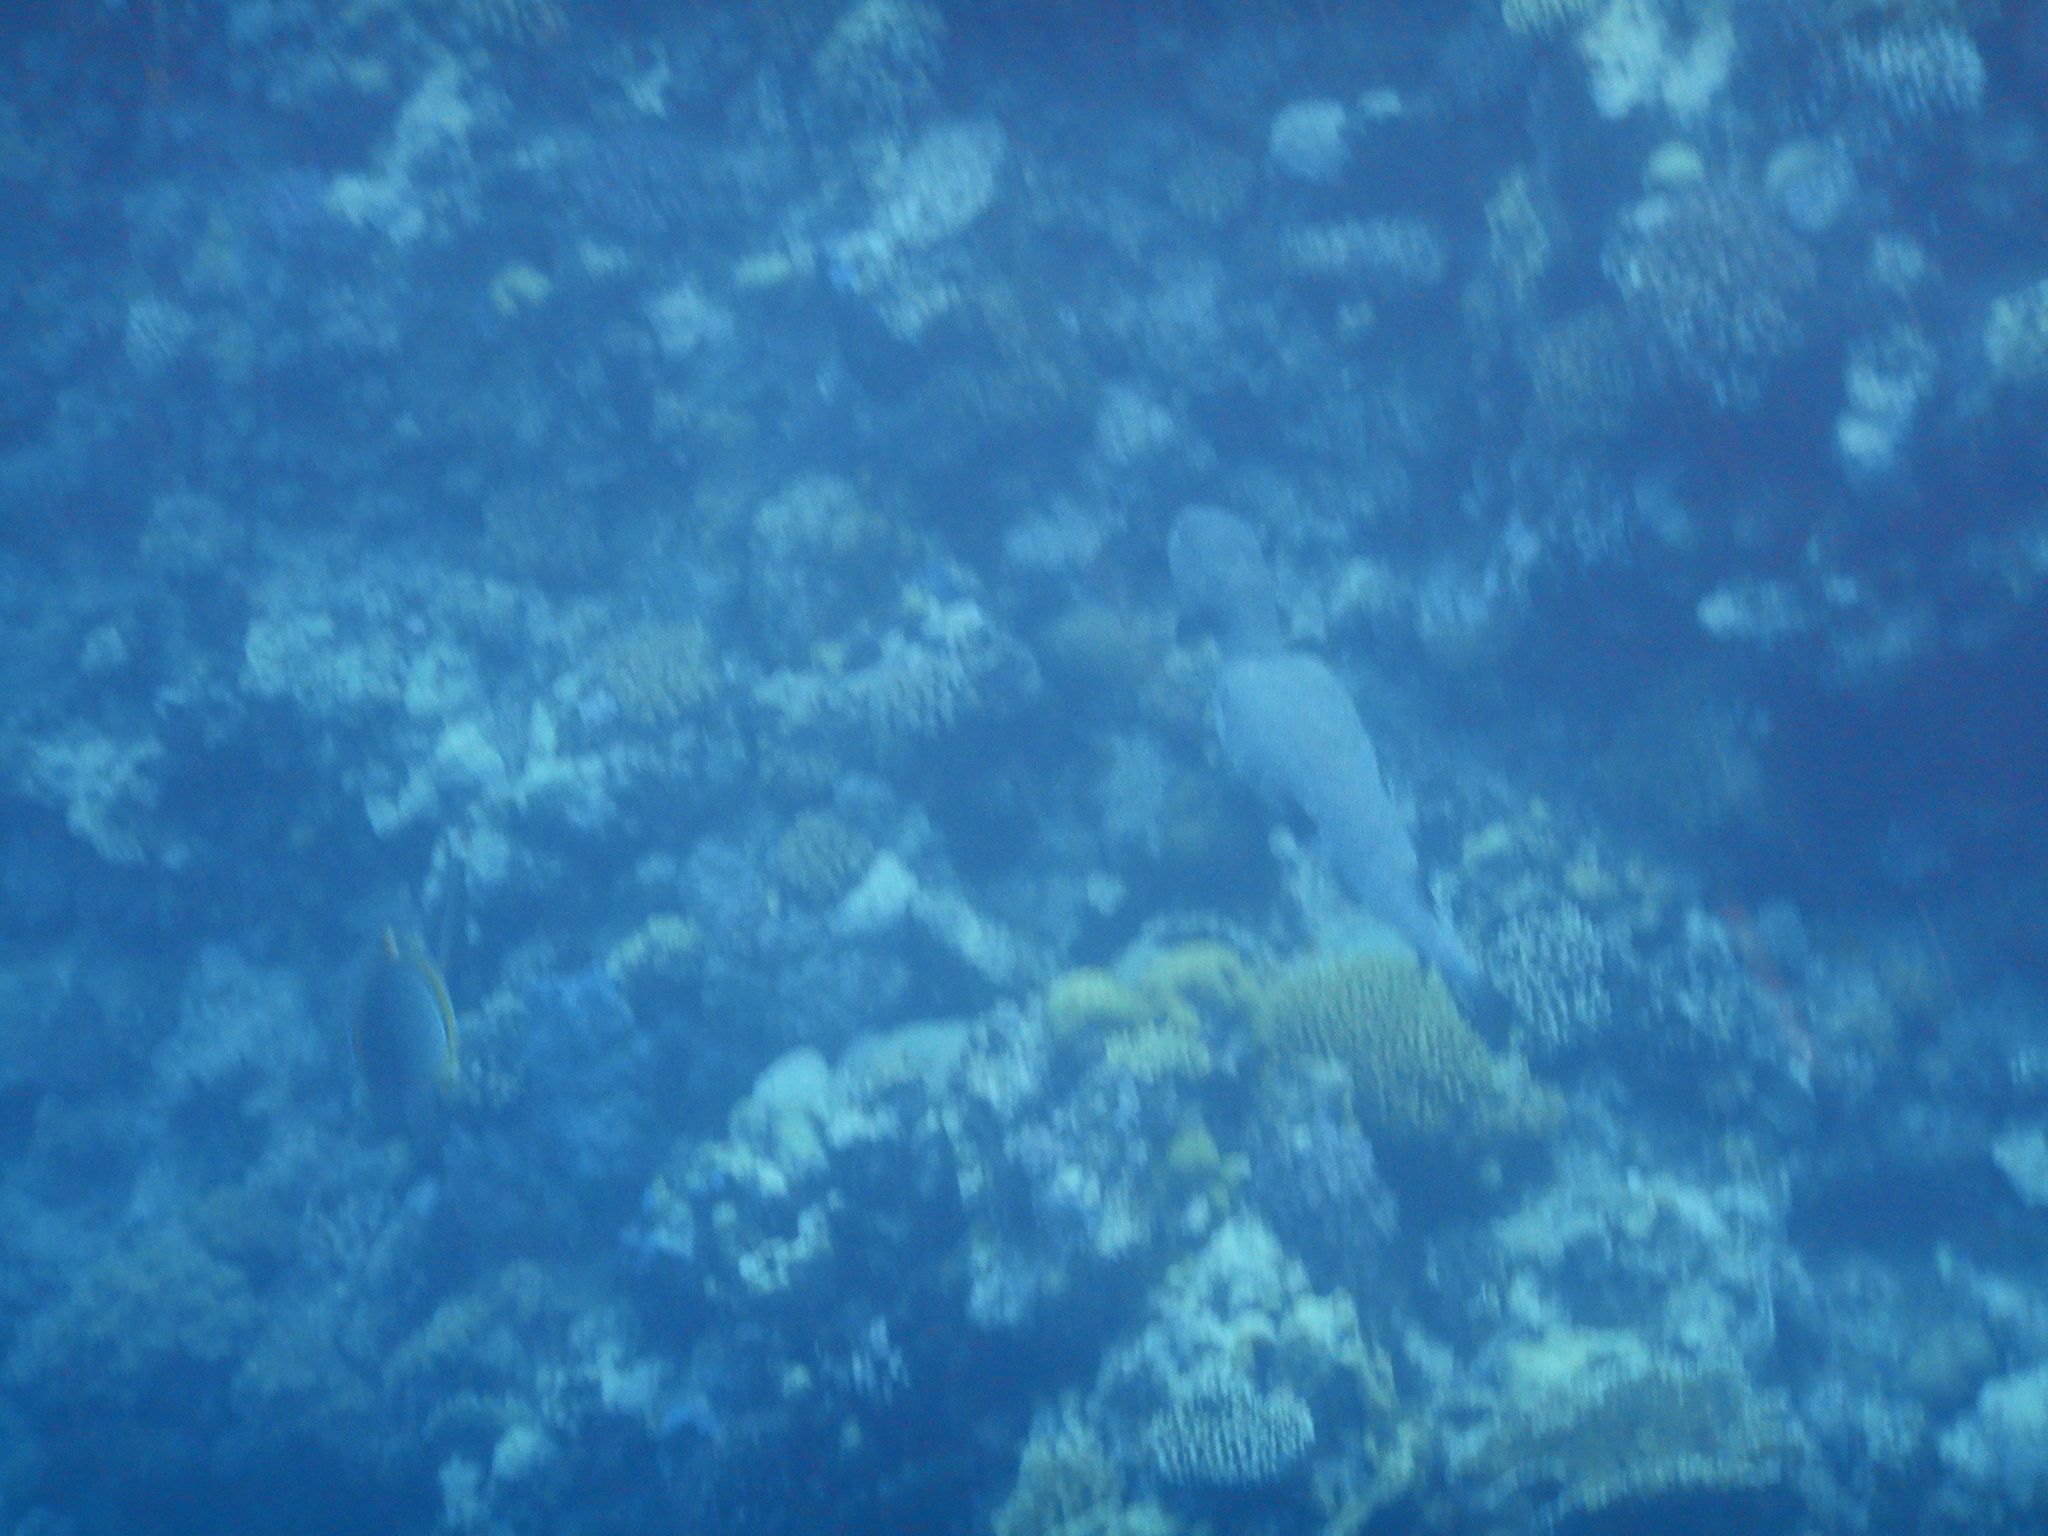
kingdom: Animalia
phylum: Chordata
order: Tetraodontiformes
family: Diodontidae
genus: Diodon
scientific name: Diodon hystrix
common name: Giant porcupinefish
